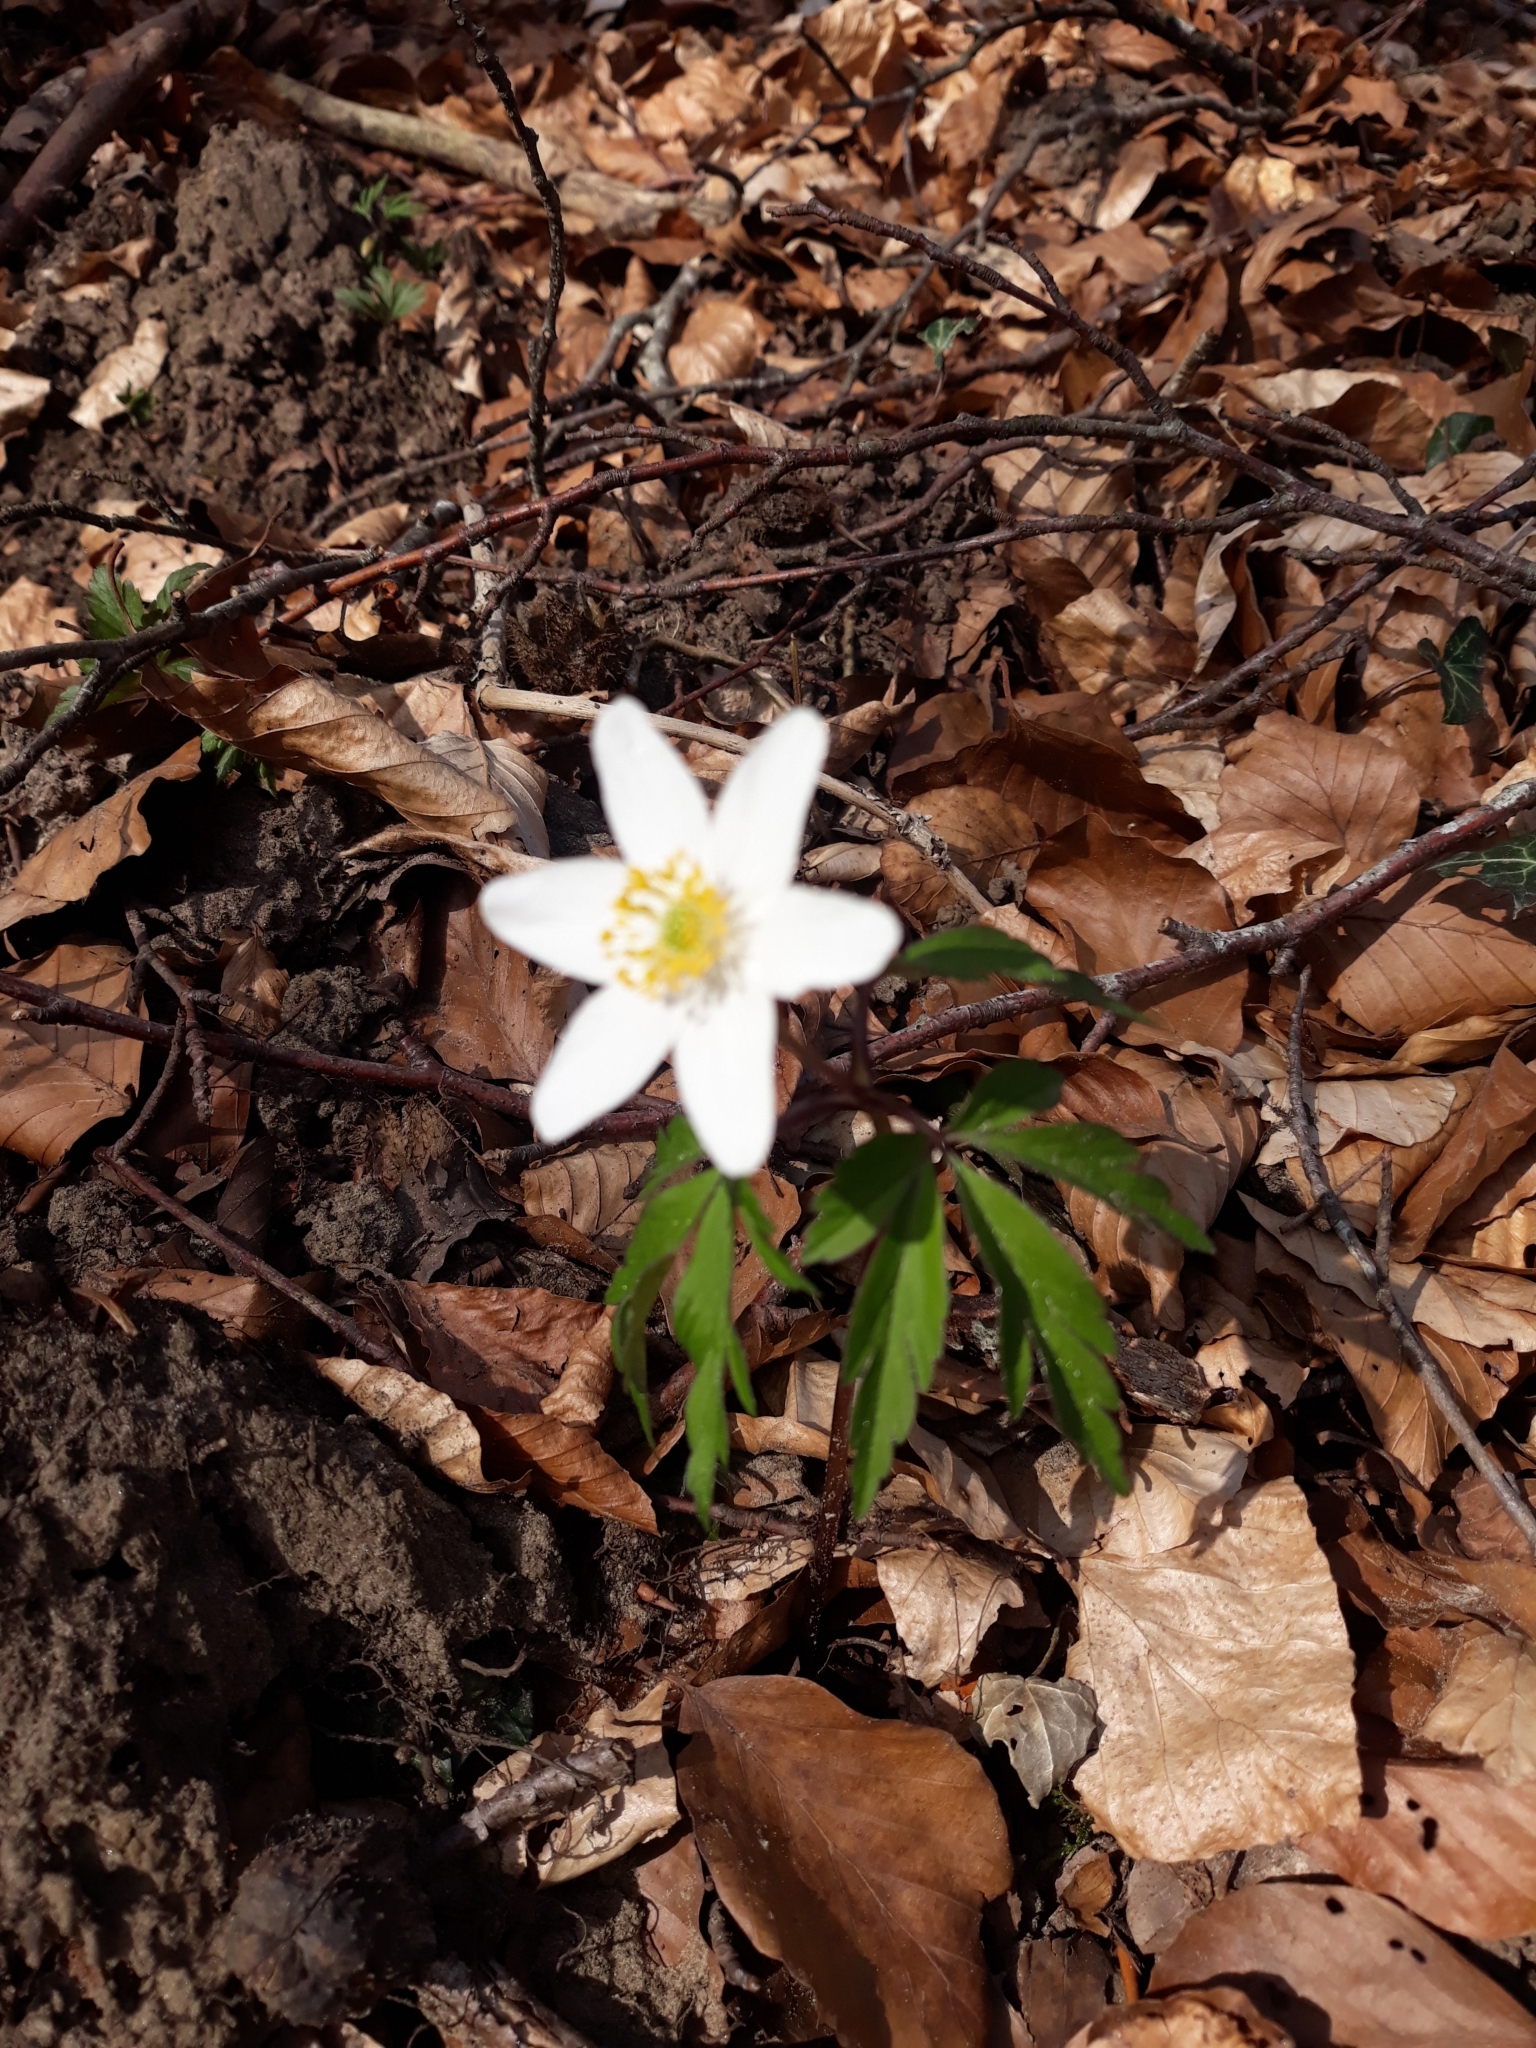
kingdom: Plantae
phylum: Tracheophyta
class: Magnoliopsida
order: Ranunculales
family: Ranunculaceae
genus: Anemone
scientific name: Anemone nemorosa
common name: Wood anemone
